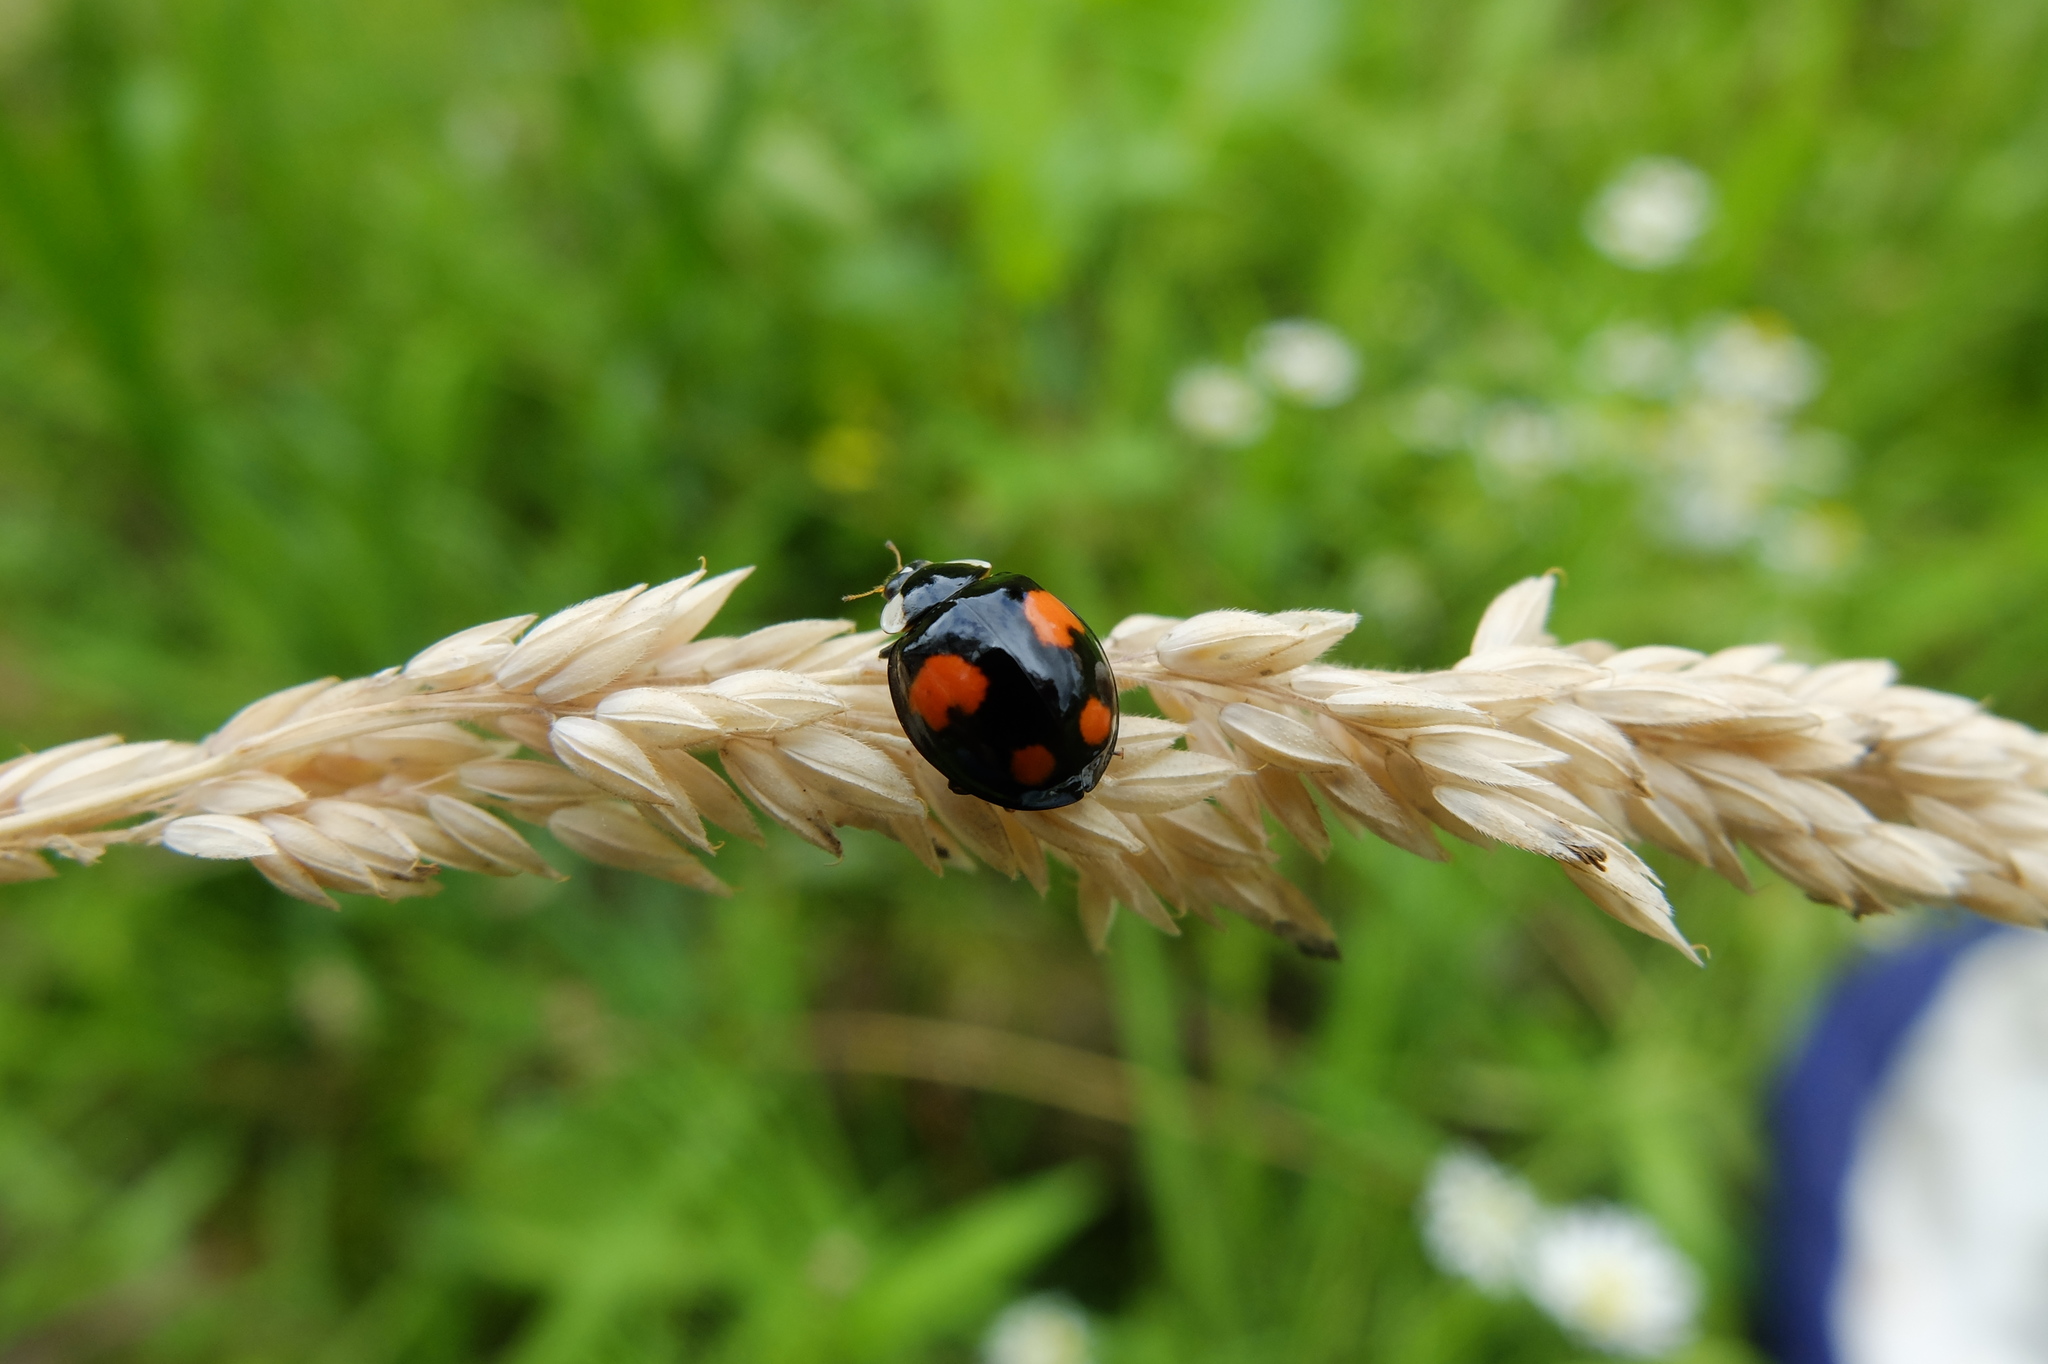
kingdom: Animalia
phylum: Arthropoda
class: Insecta
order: Coleoptera
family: Coccinellidae
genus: Harmonia
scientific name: Harmonia axyridis
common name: Harlequin ladybird
